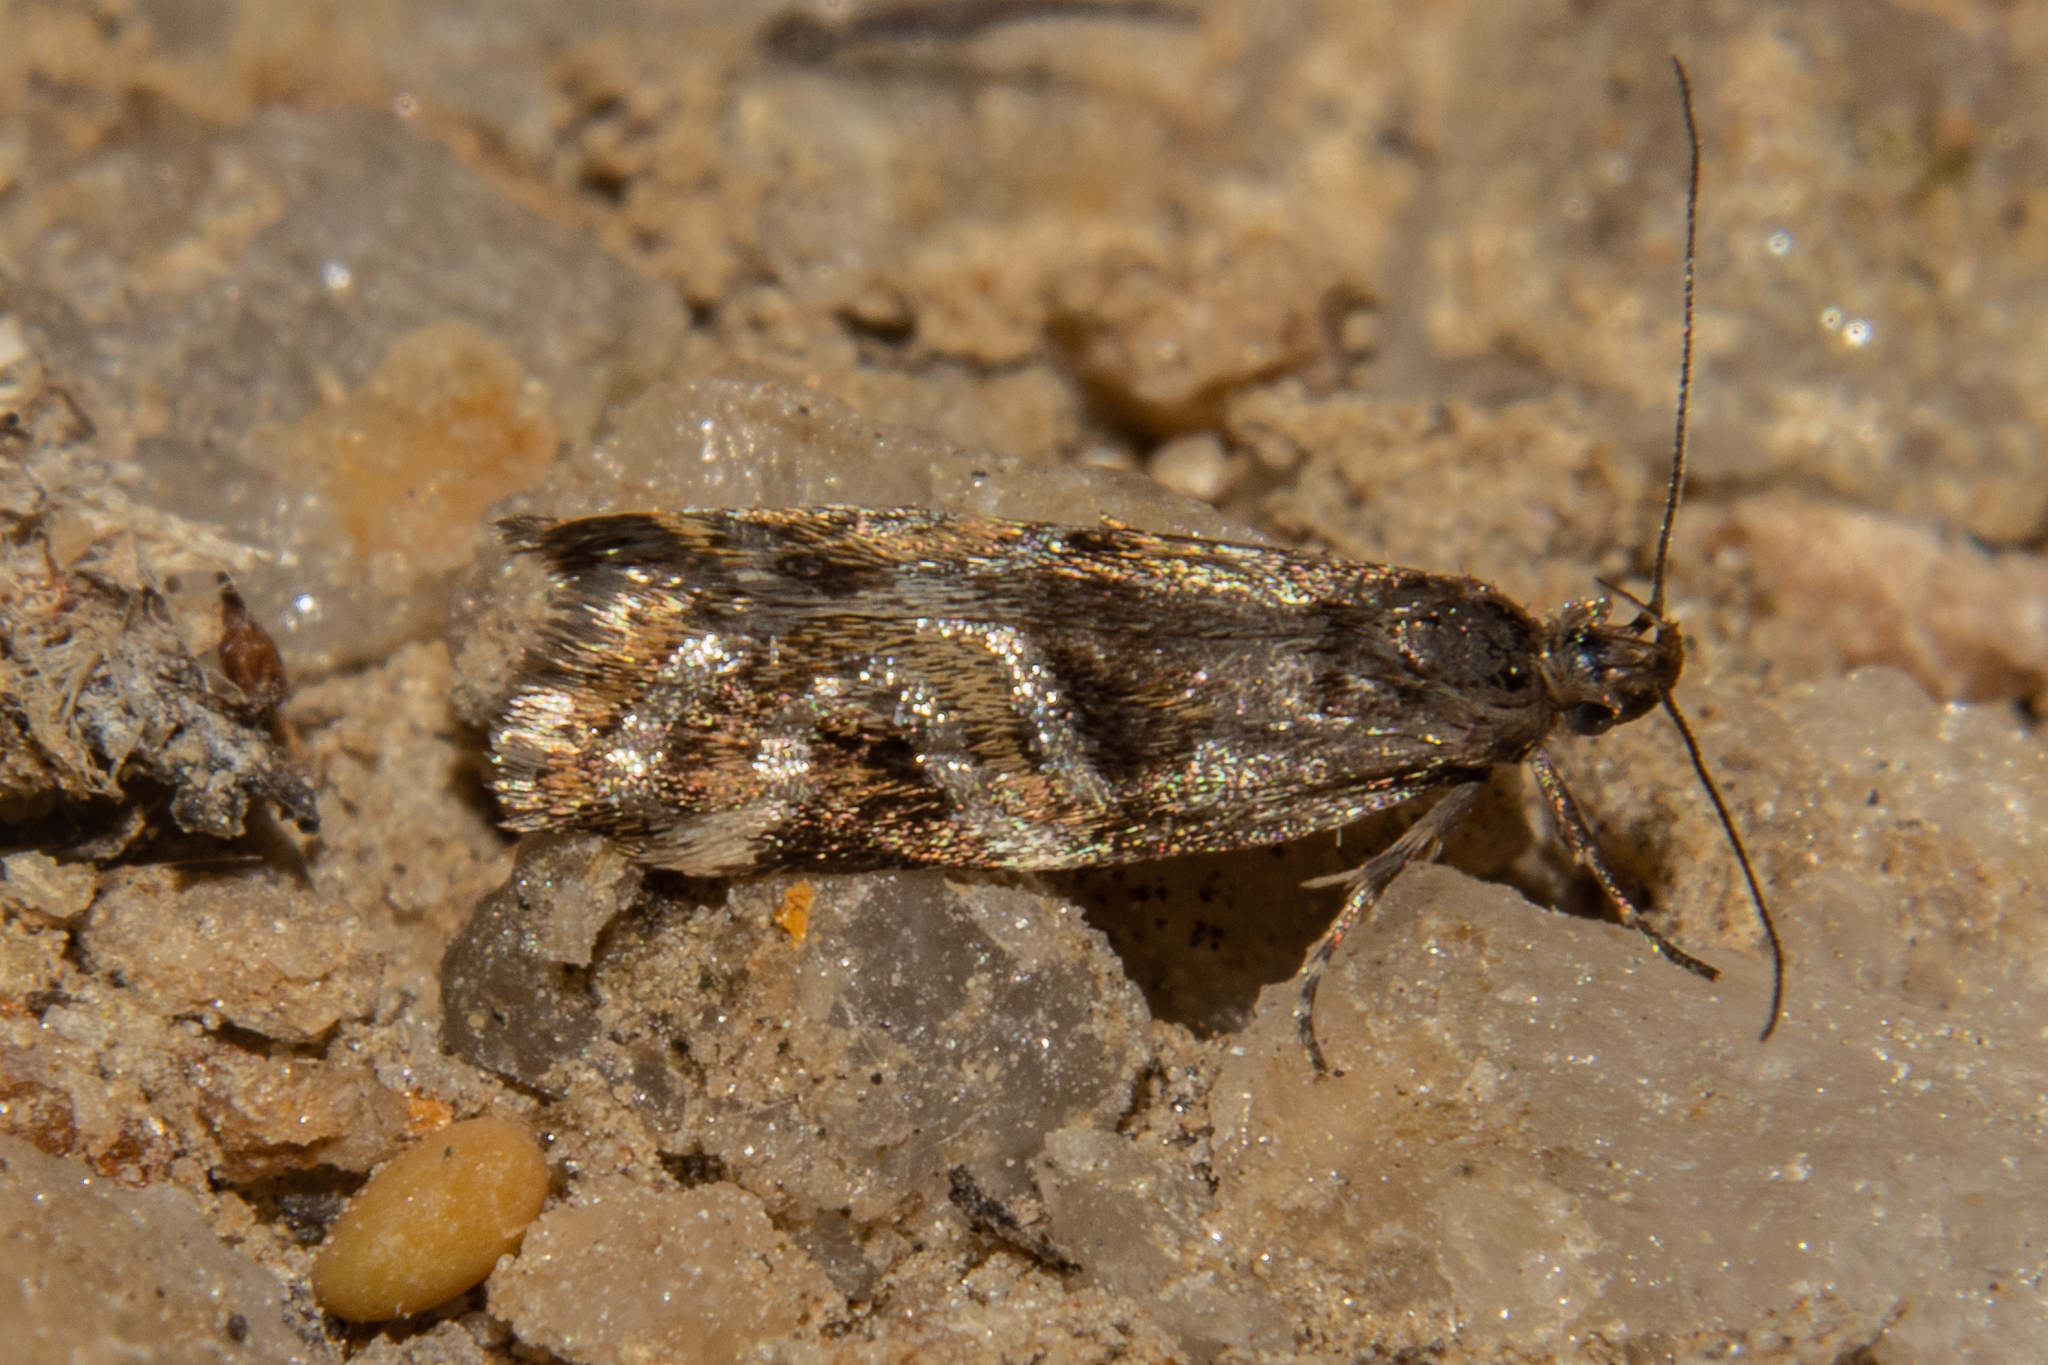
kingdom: Animalia
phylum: Arthropoda
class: Insecta
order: Lepidoptera
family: Oecophoridae
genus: Hierodoris
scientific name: Hierodoris s-fractum
